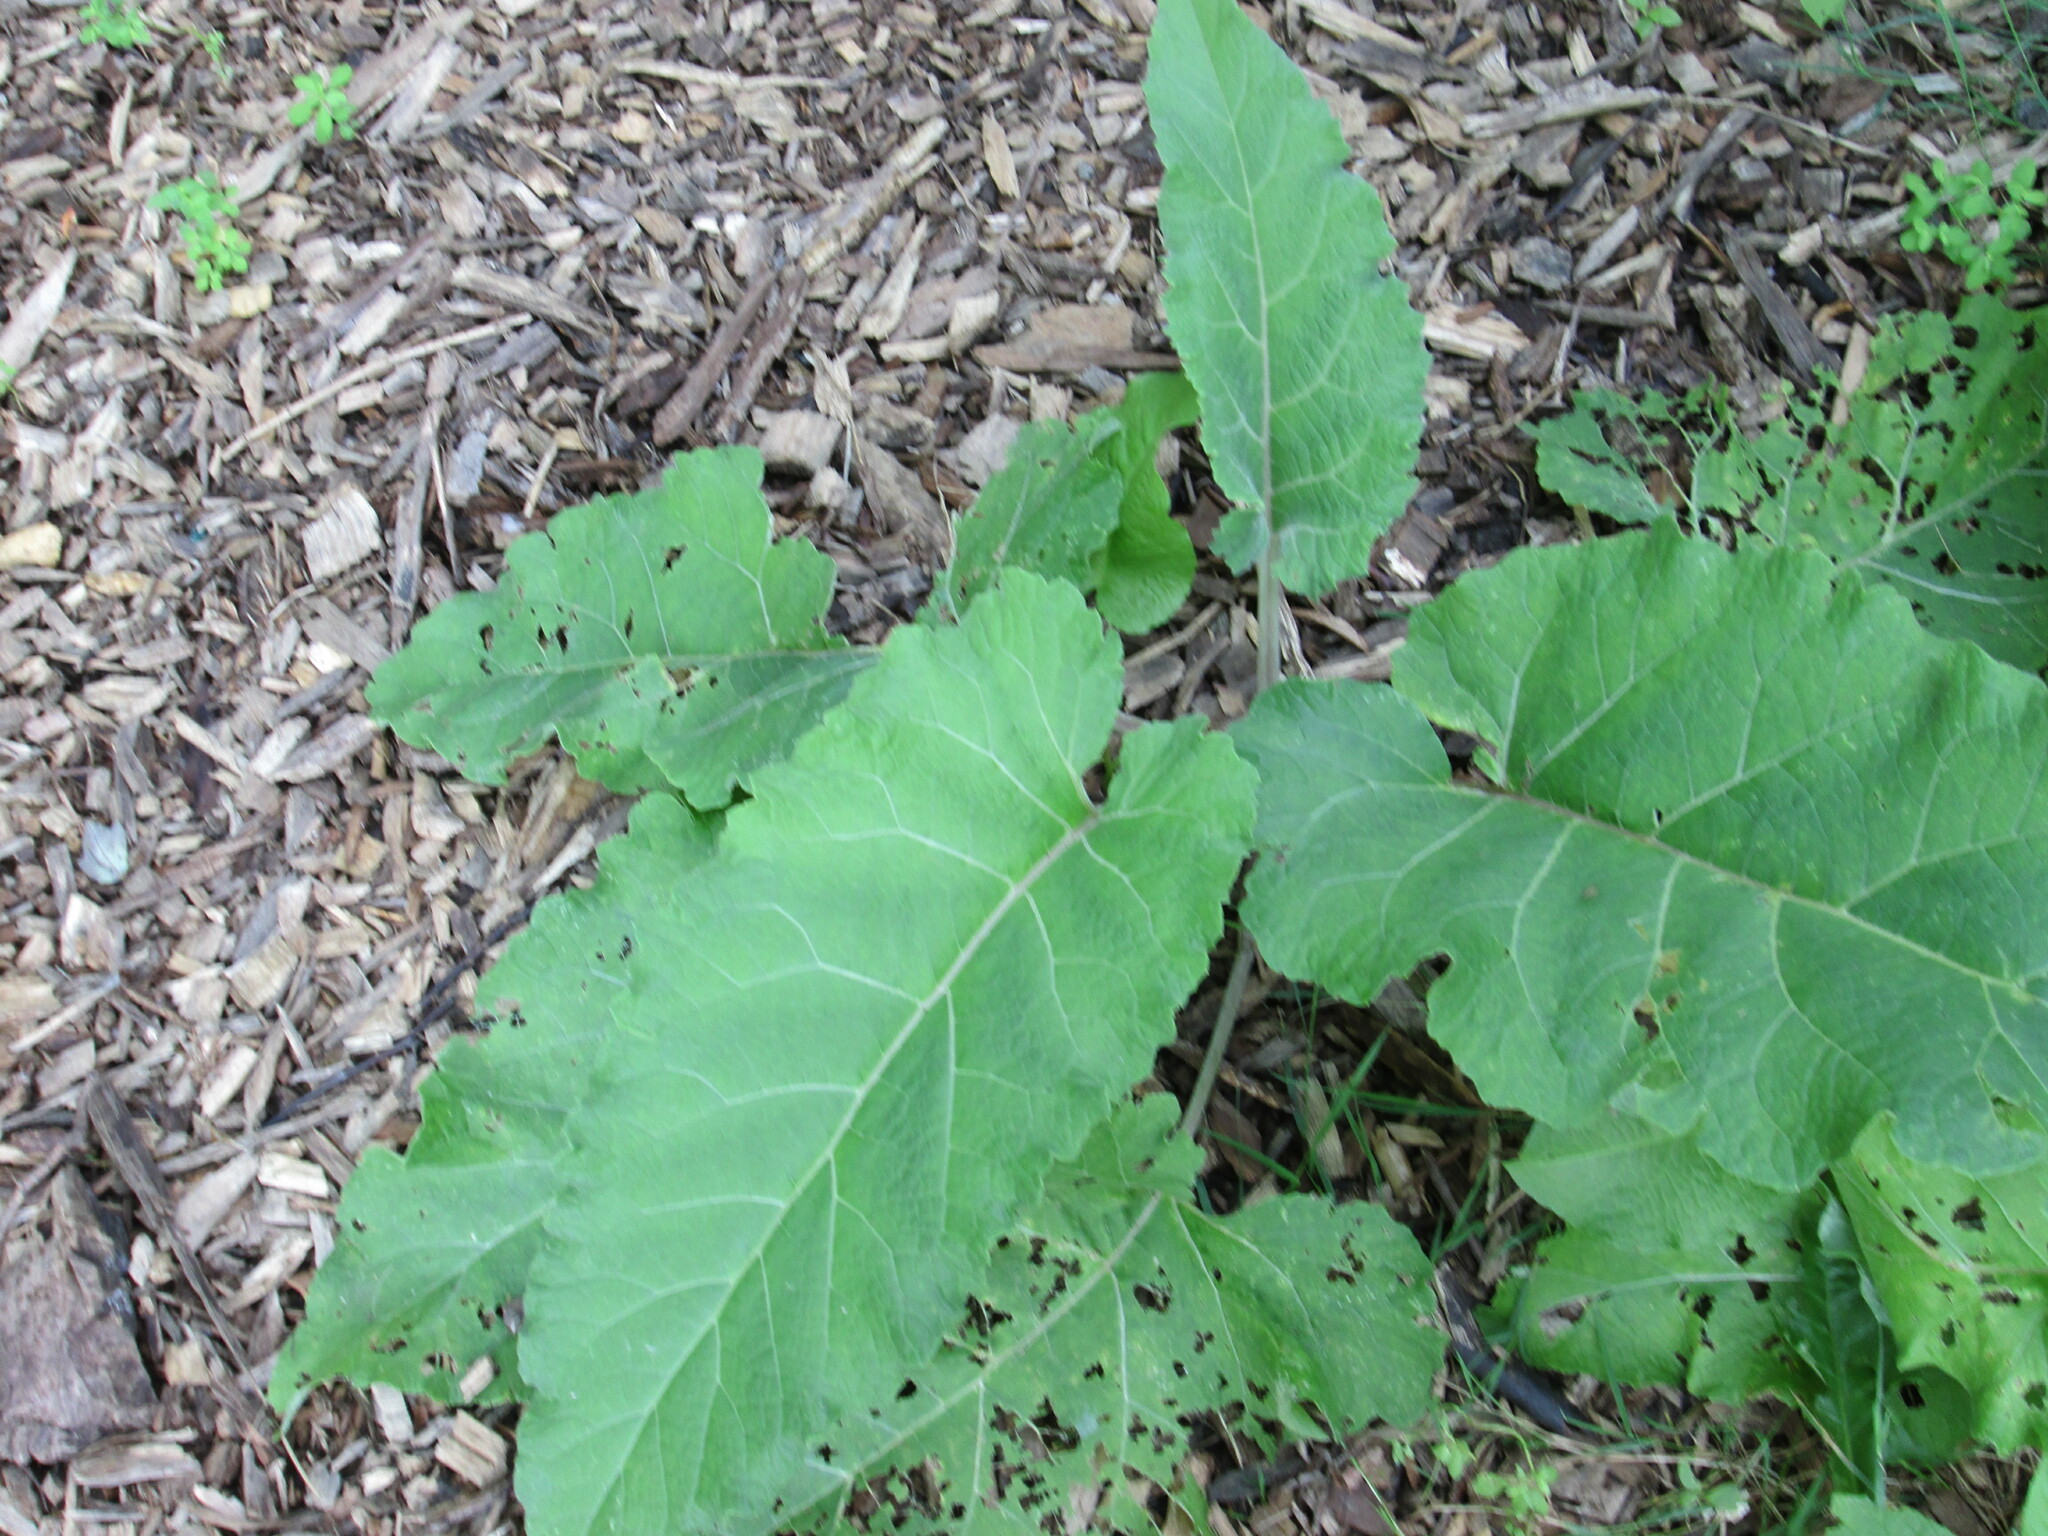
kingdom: Plantae
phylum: Tracheophyta
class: Magnoliopsida
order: Asterales
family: Asteraceae
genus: Arctium
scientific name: Arctium
